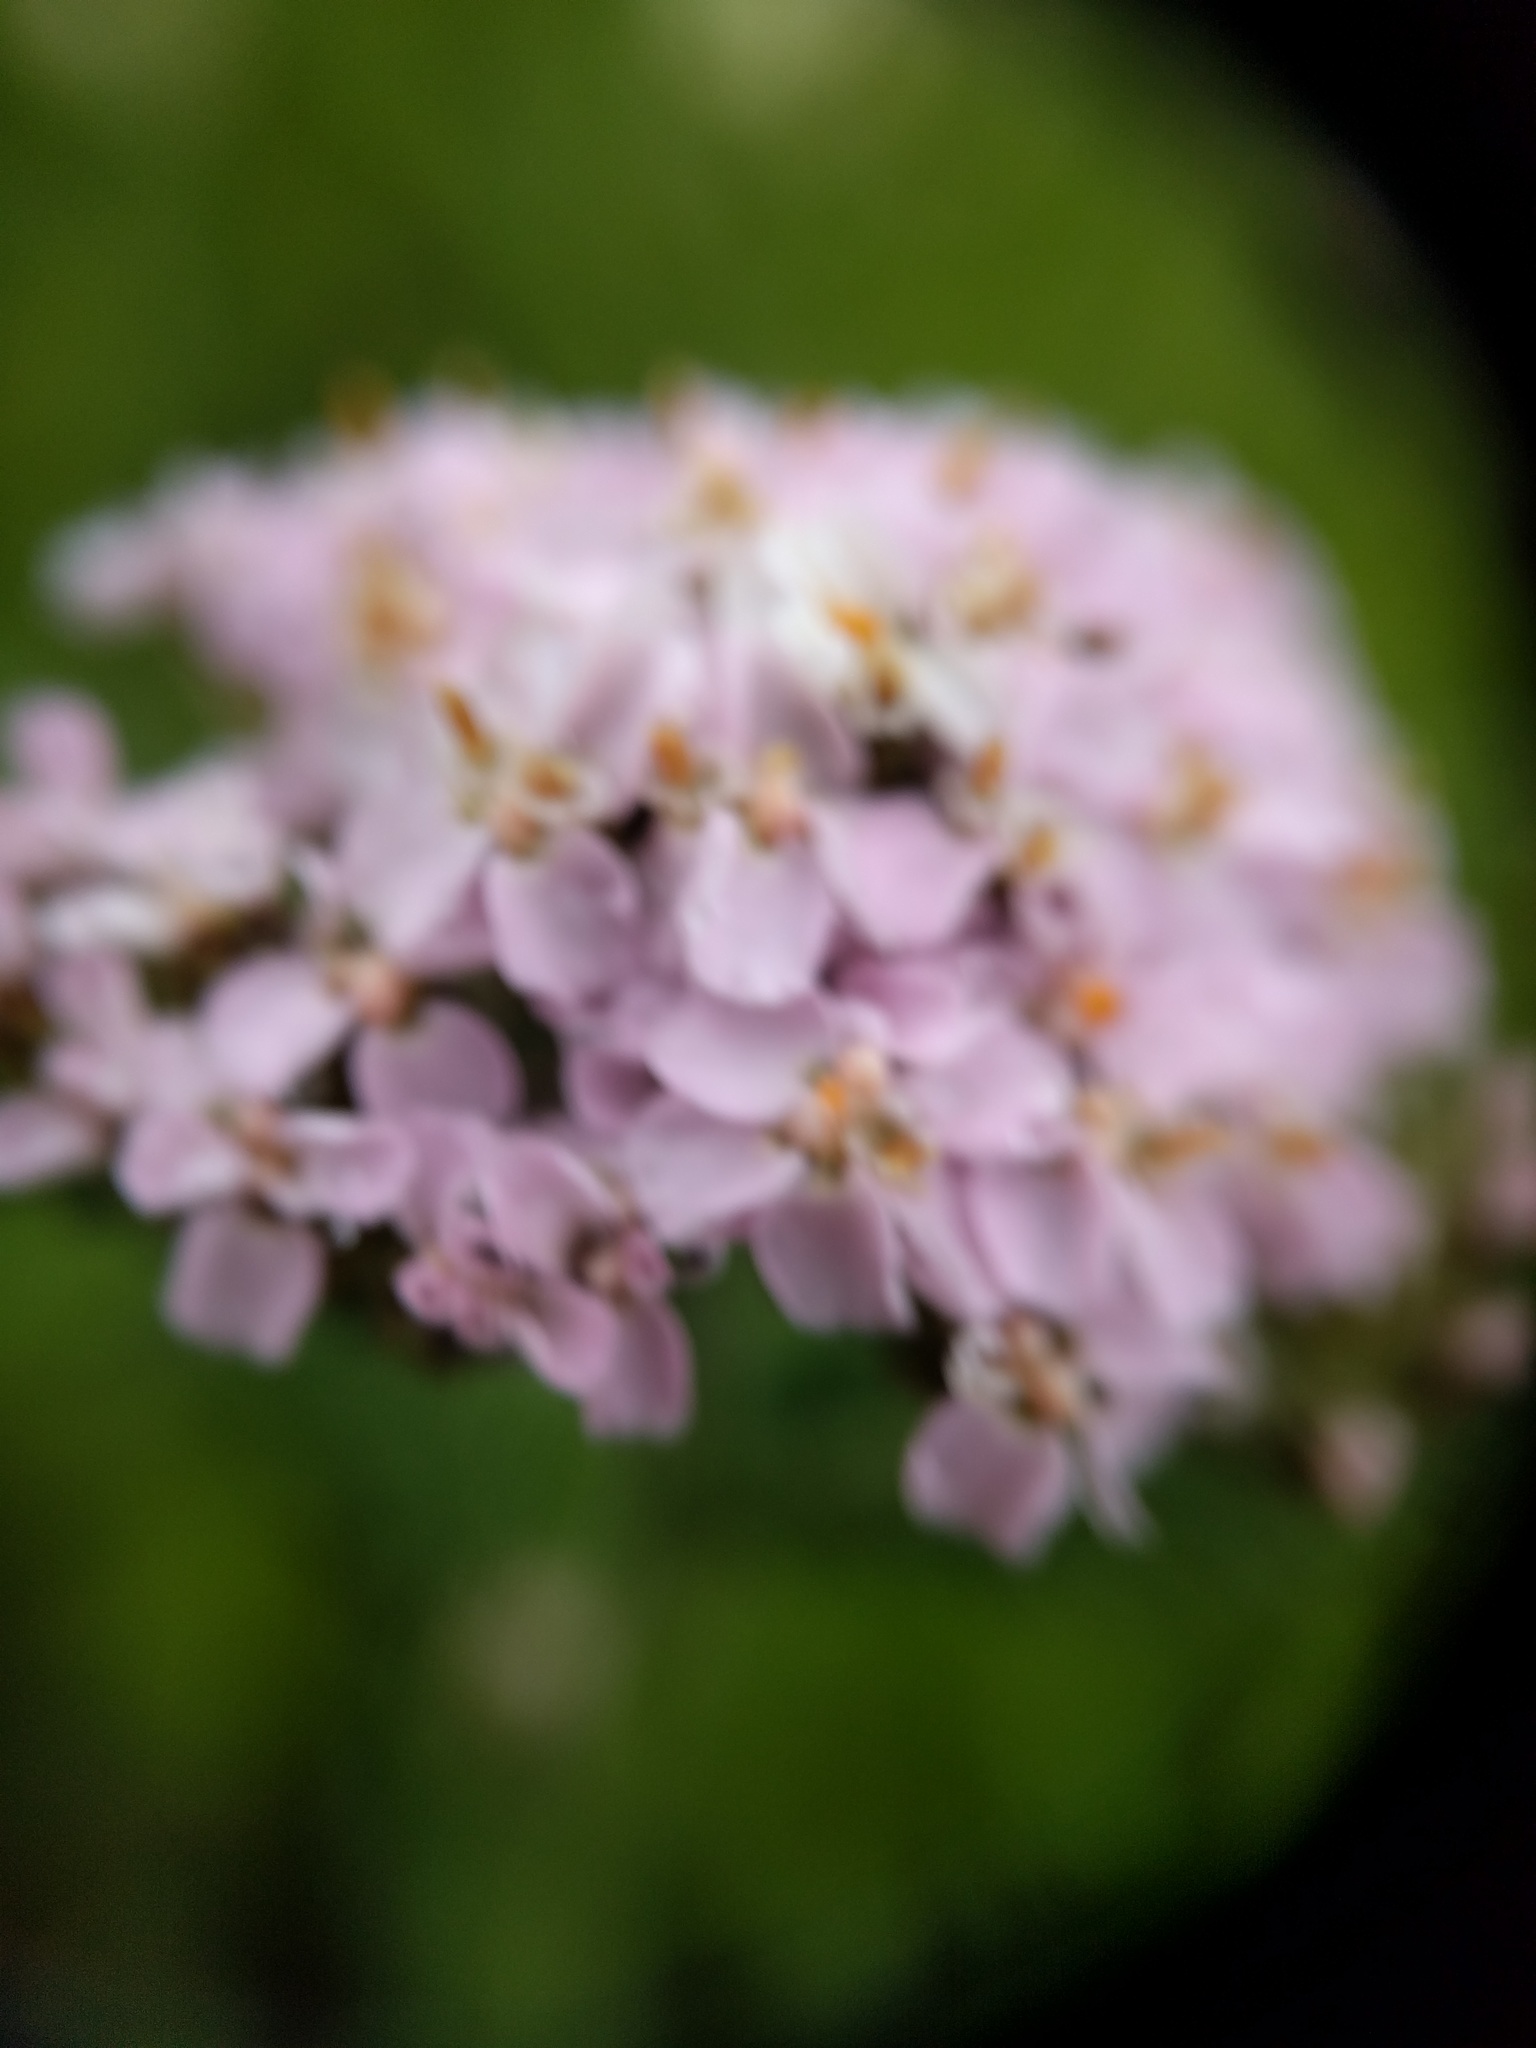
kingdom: Plantae
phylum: Tracheophyta
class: Magnoliopsida
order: Asterales
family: Asteraceae
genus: Achillea
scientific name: Achillea millefolium
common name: Yarrow
